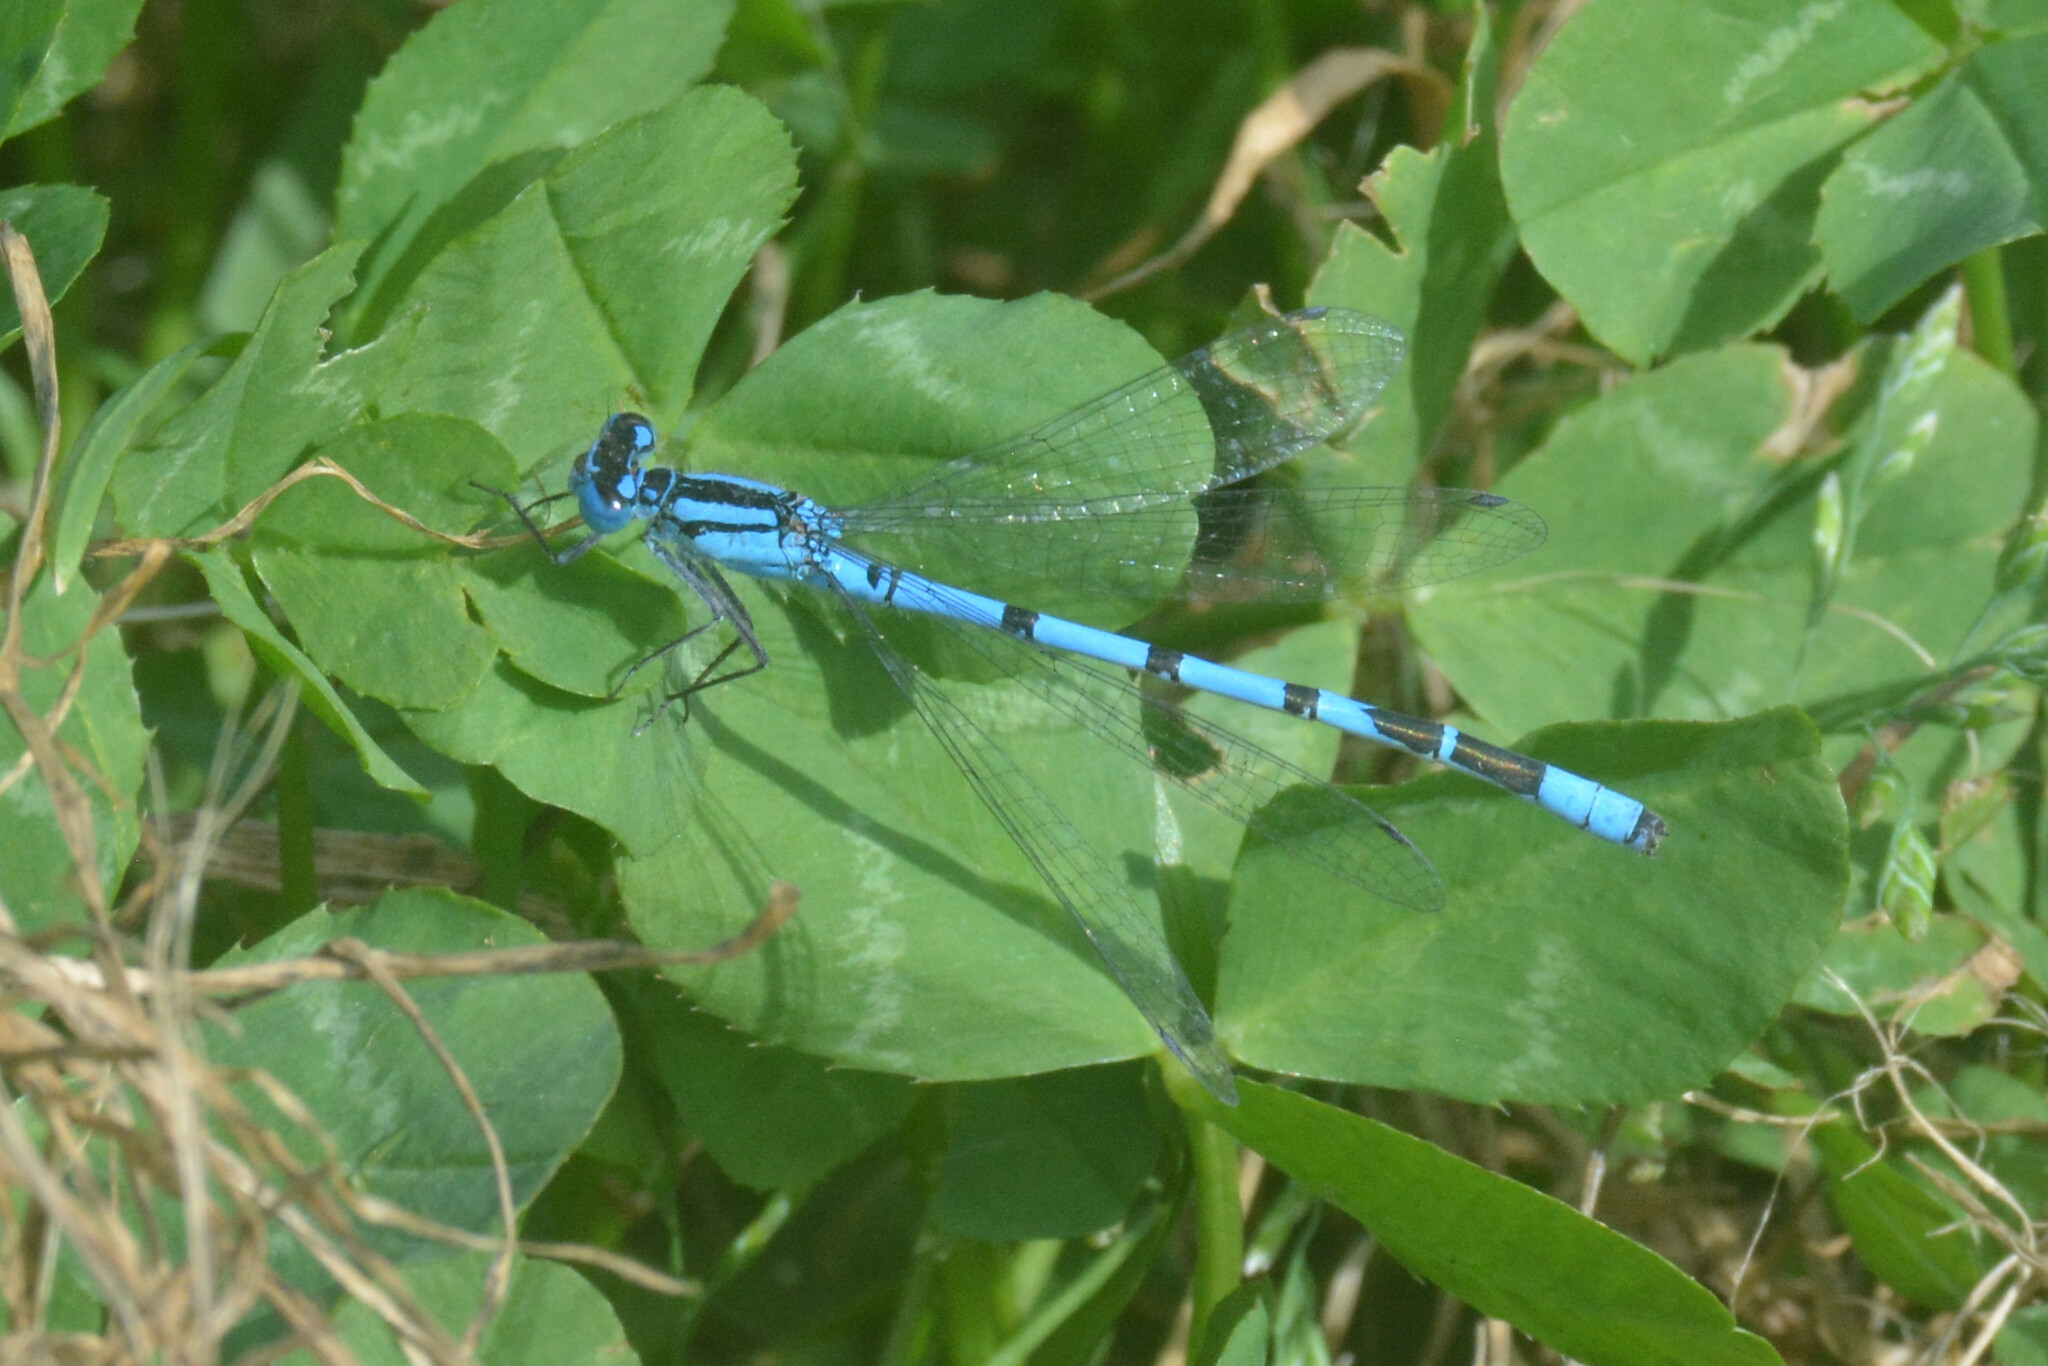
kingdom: Animalia
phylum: Arthropoda
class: Insecta
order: Odonata
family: Coenagrionidae
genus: Enallagma
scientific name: Enallagma cyathigerum
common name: Common blue damselfly
